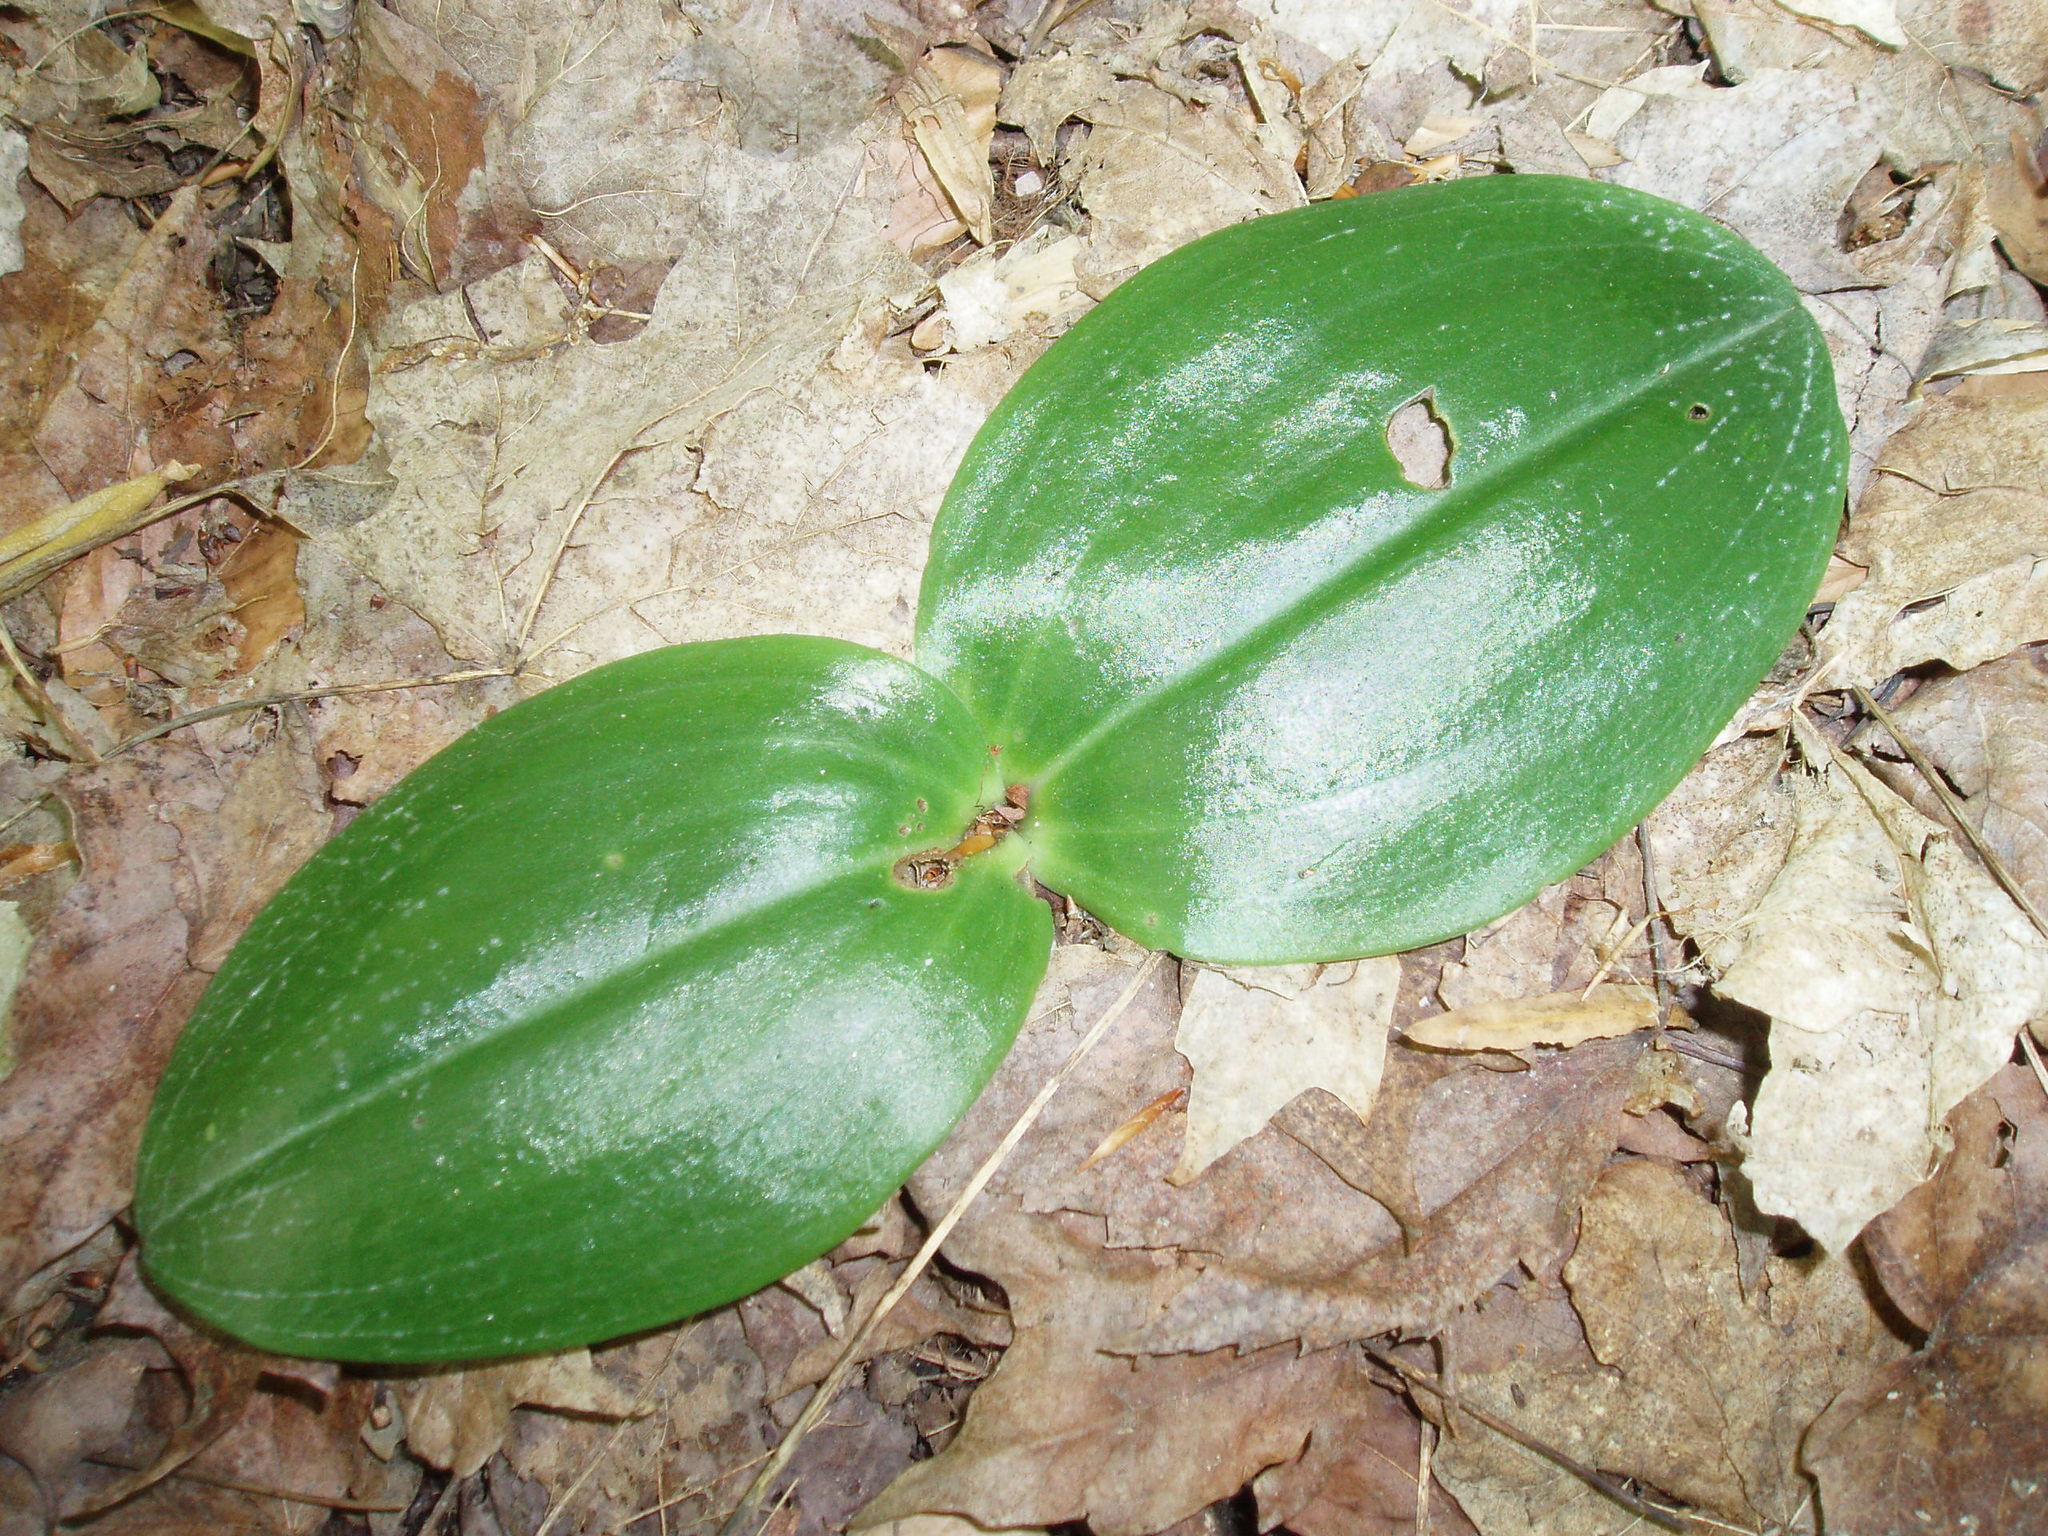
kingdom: Plantae
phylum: Tracheophyta
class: Liliopsida
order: Asparagales
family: Orchidaceae
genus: Platanthera
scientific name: Platanthera orbiculata
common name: Large round-leaved orchid
